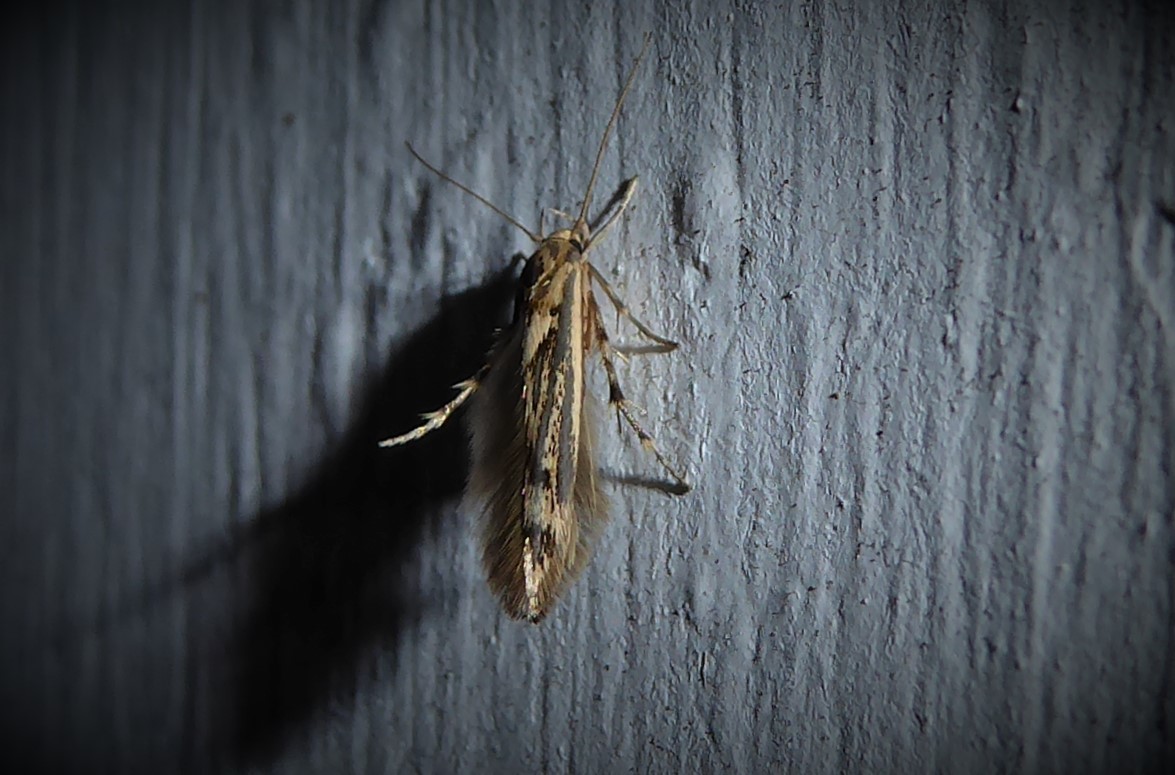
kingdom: Animalia
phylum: Arthropoda
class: Insecta
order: Lepidoptera
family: Stathmopodidae
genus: Stathmopoda
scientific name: Stathmopoda plumbiflua
